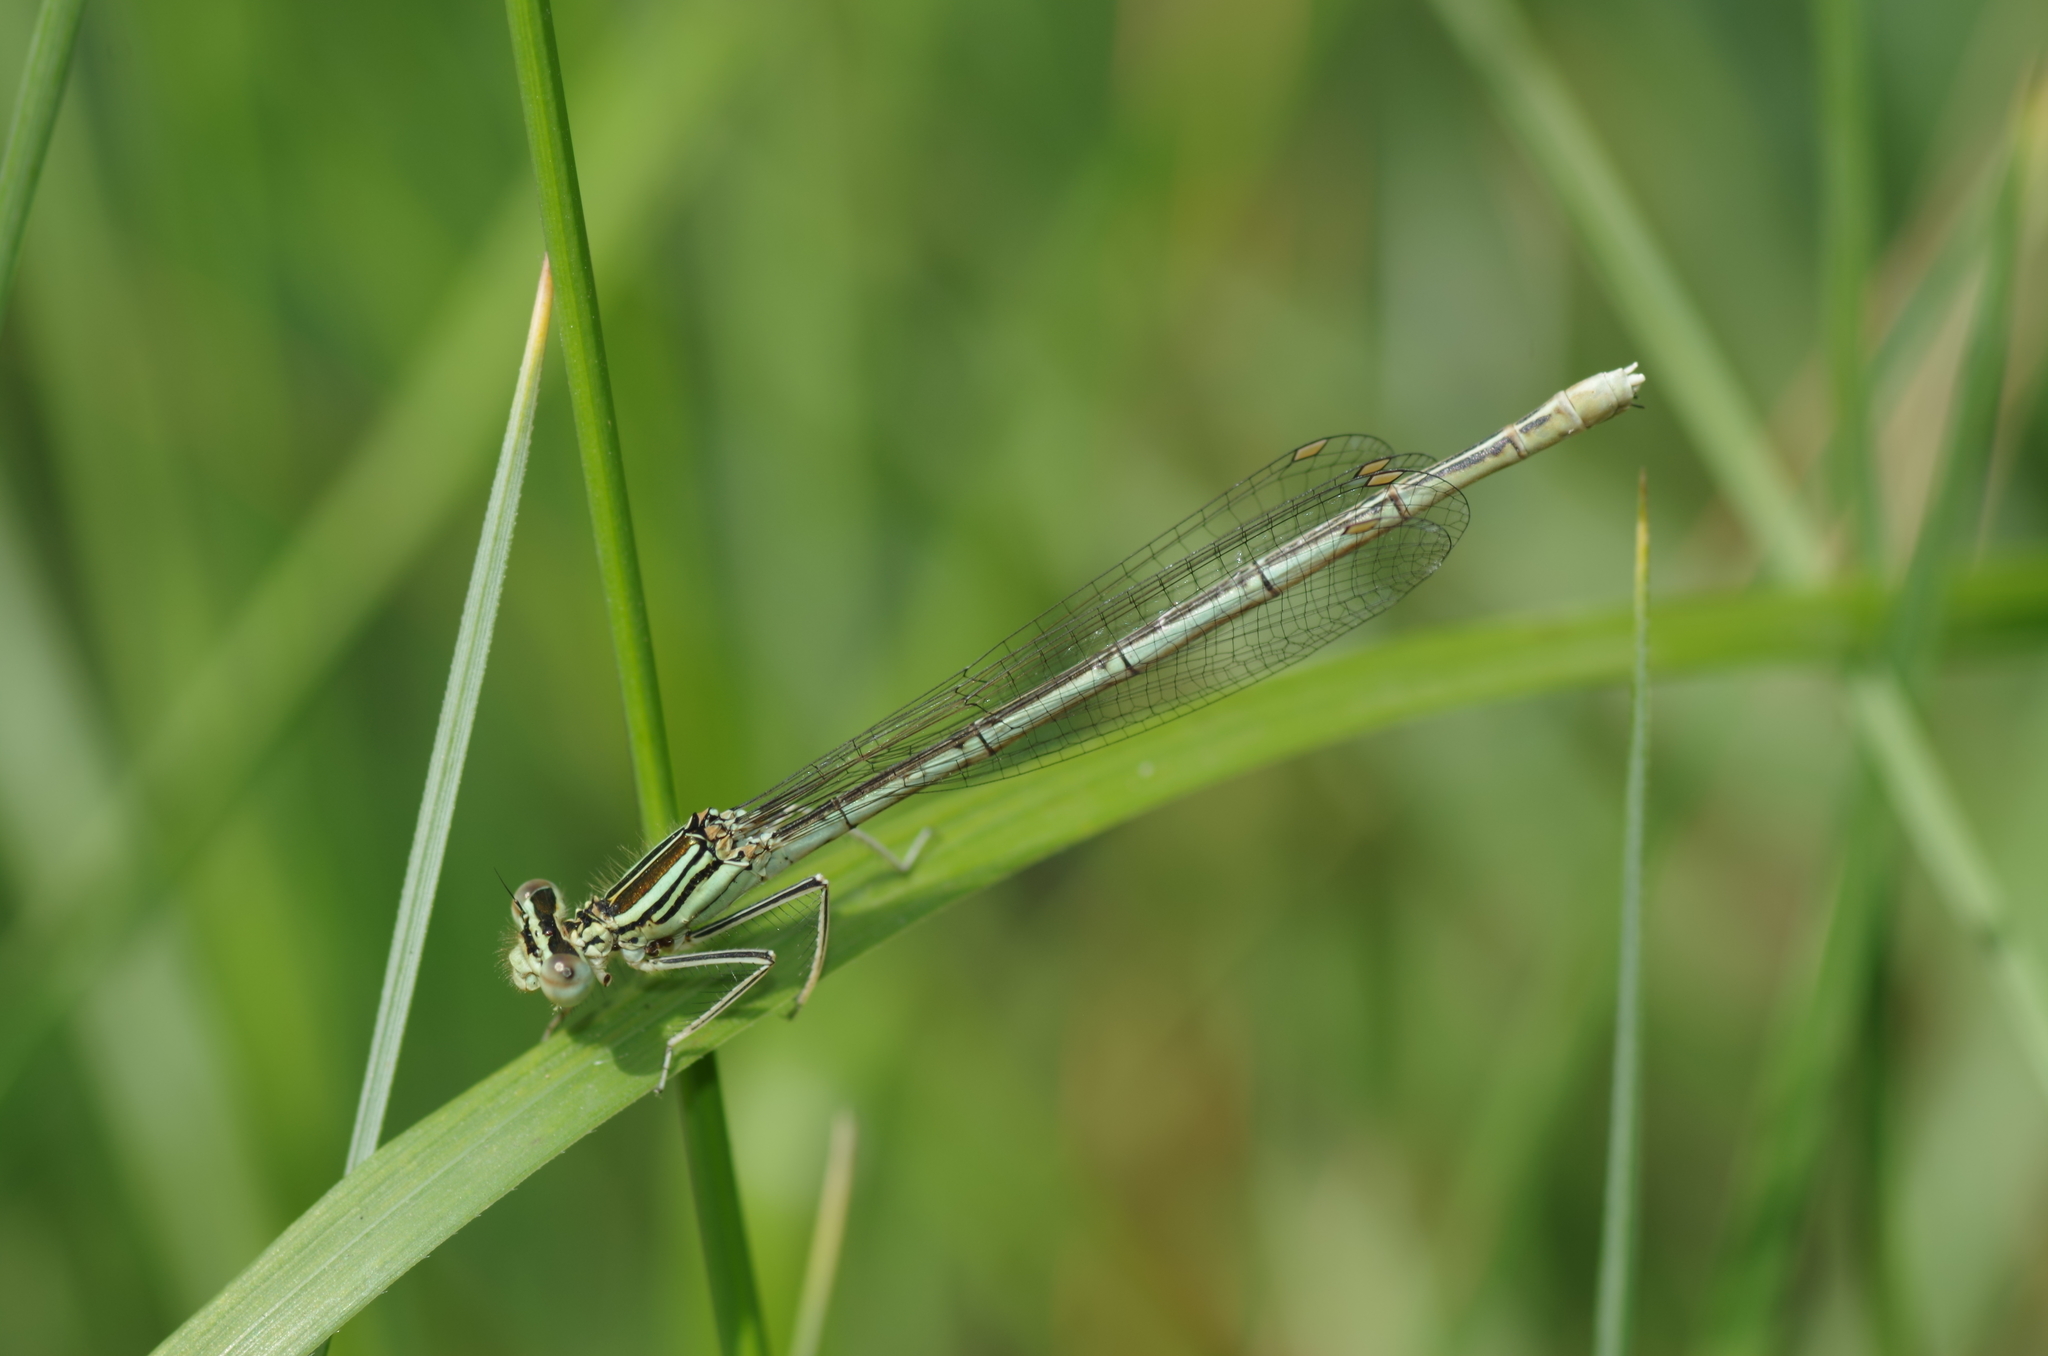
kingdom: Animalia
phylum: Arthropoda
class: Insecta
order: Odonata
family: Platycnemididae
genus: Platycnemis
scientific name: Platycnemis pennipes
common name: White-legged damselfly
